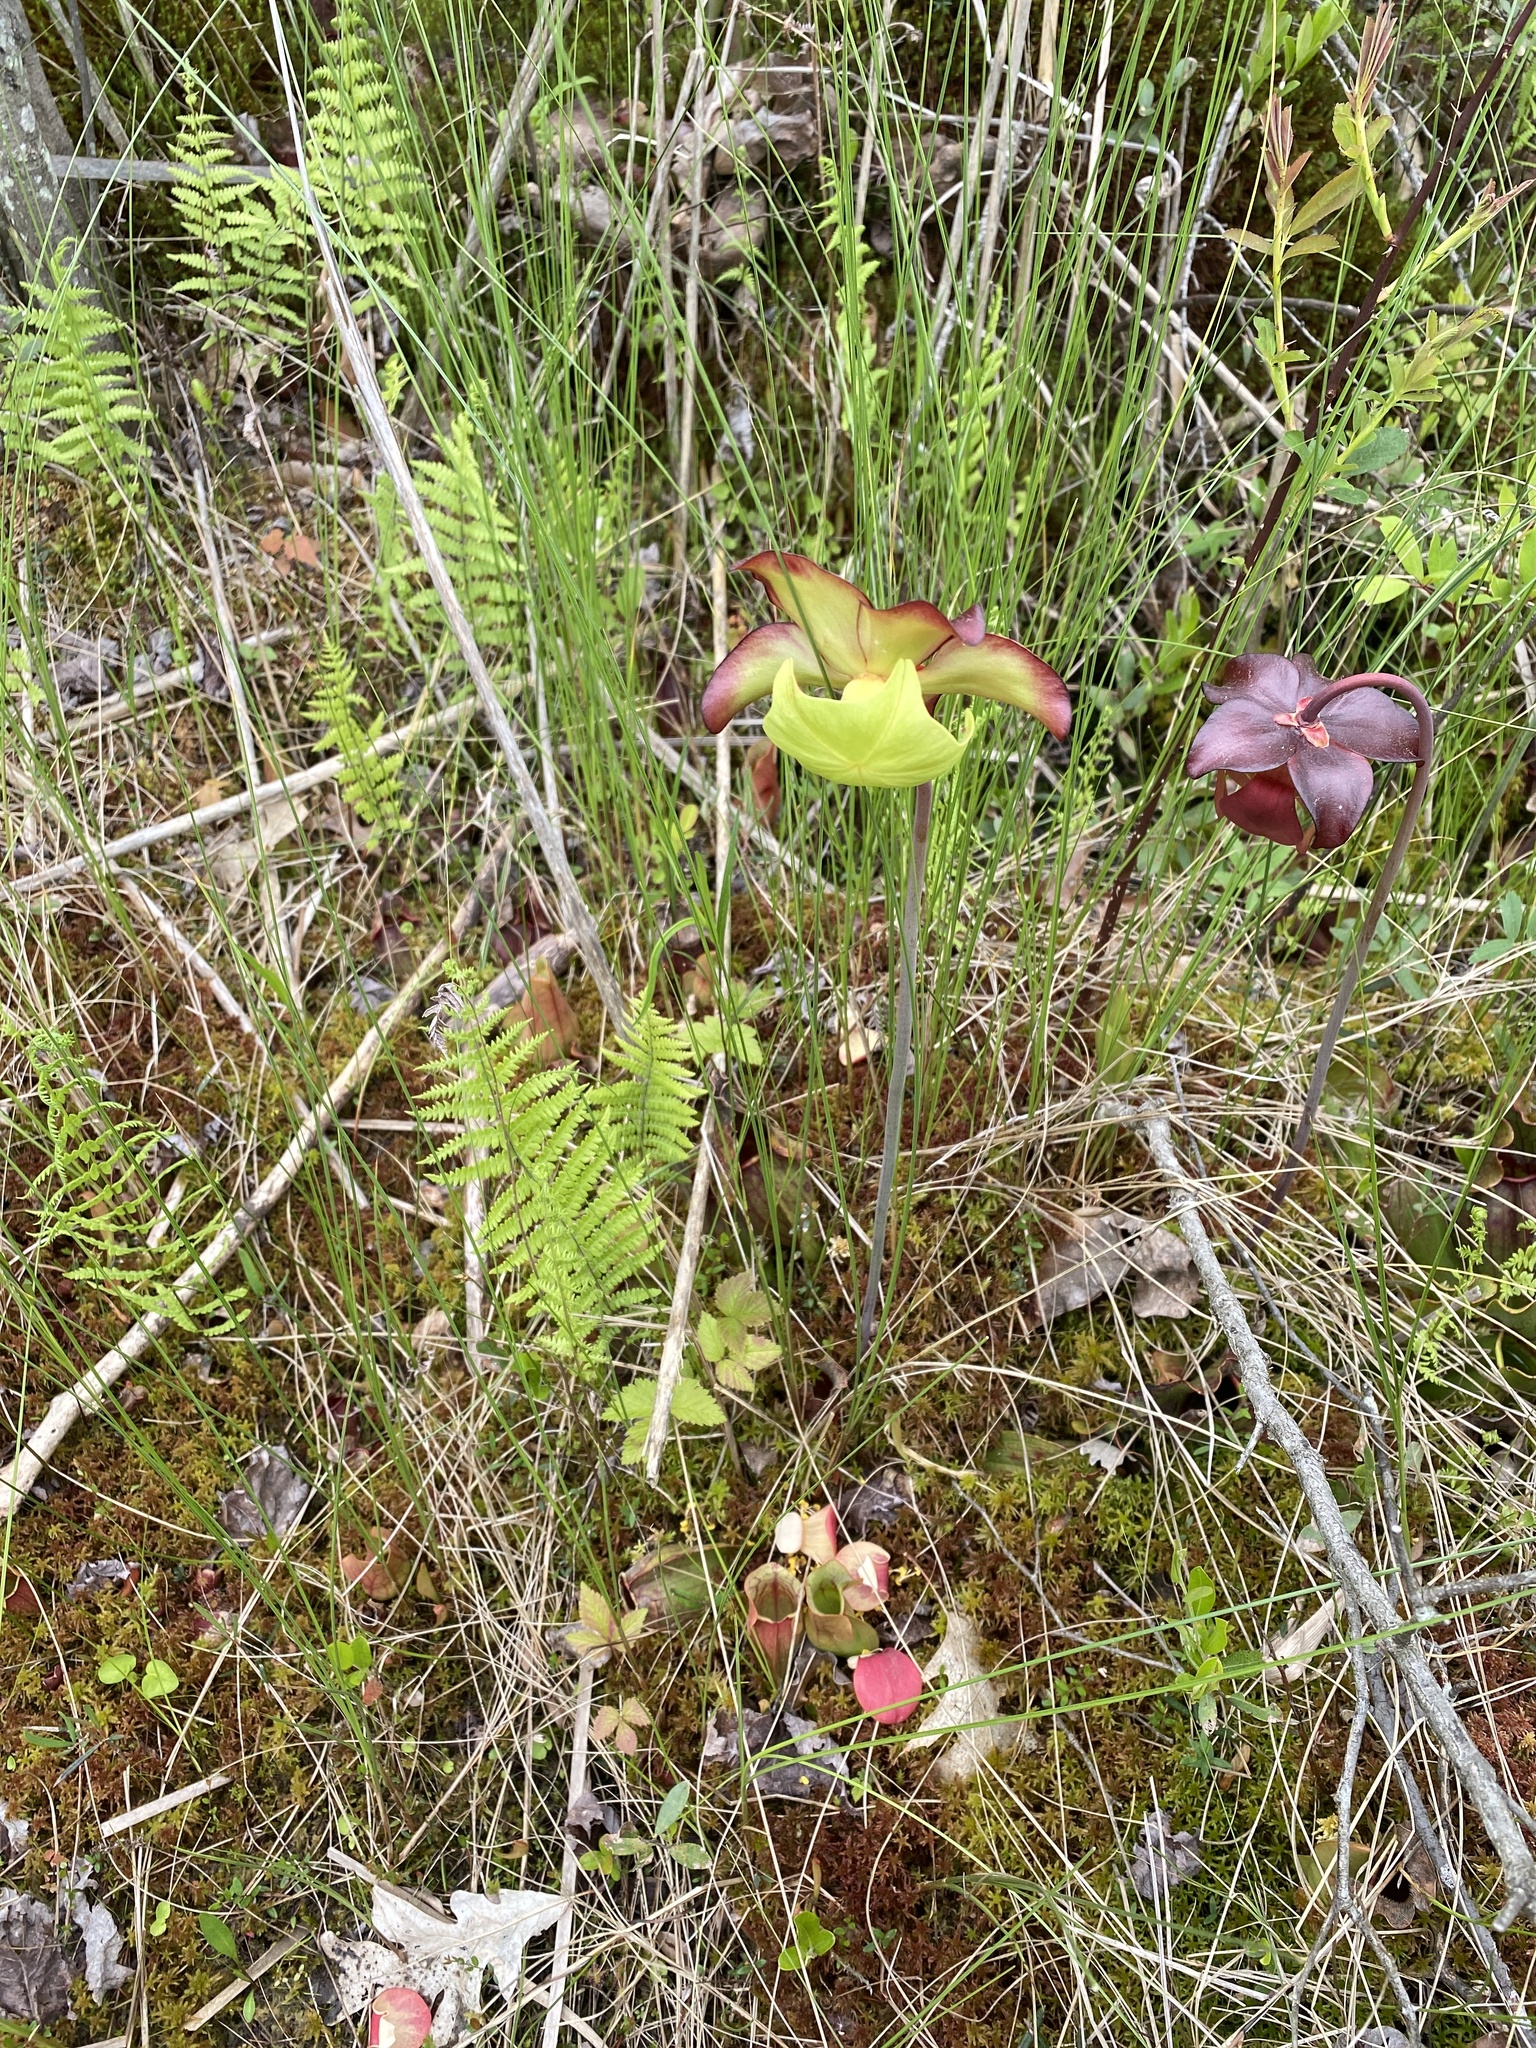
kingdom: Plantae
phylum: Tracheophyta
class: Magnoliopsida
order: Ericales
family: Sarraceniaceae
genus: Sarracenia
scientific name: Sarracenia purpurea
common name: Pitcherplant
